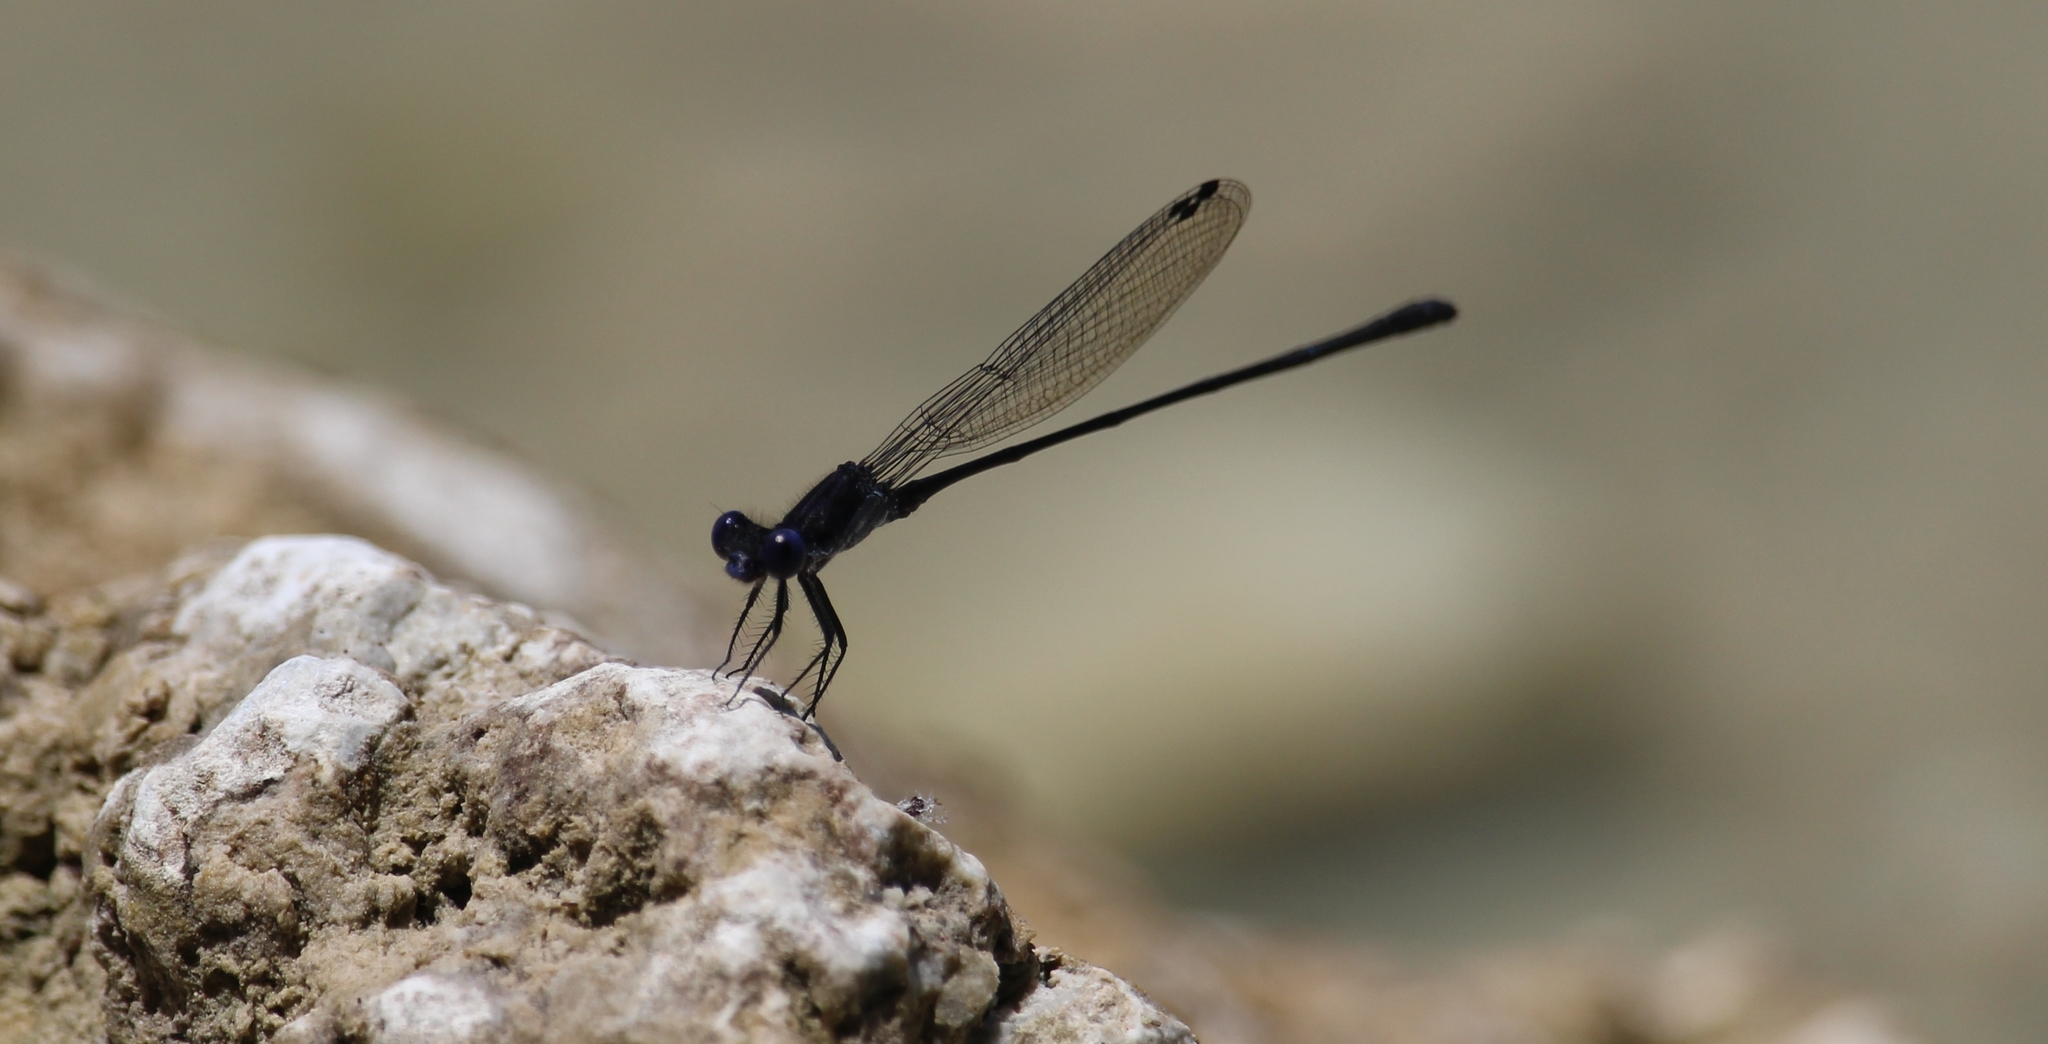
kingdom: Animalia
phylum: Arthropoda
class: Insecta
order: Odonata
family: Coenagrionidae
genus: Argia
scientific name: Argia translata
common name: Dusky dancer
